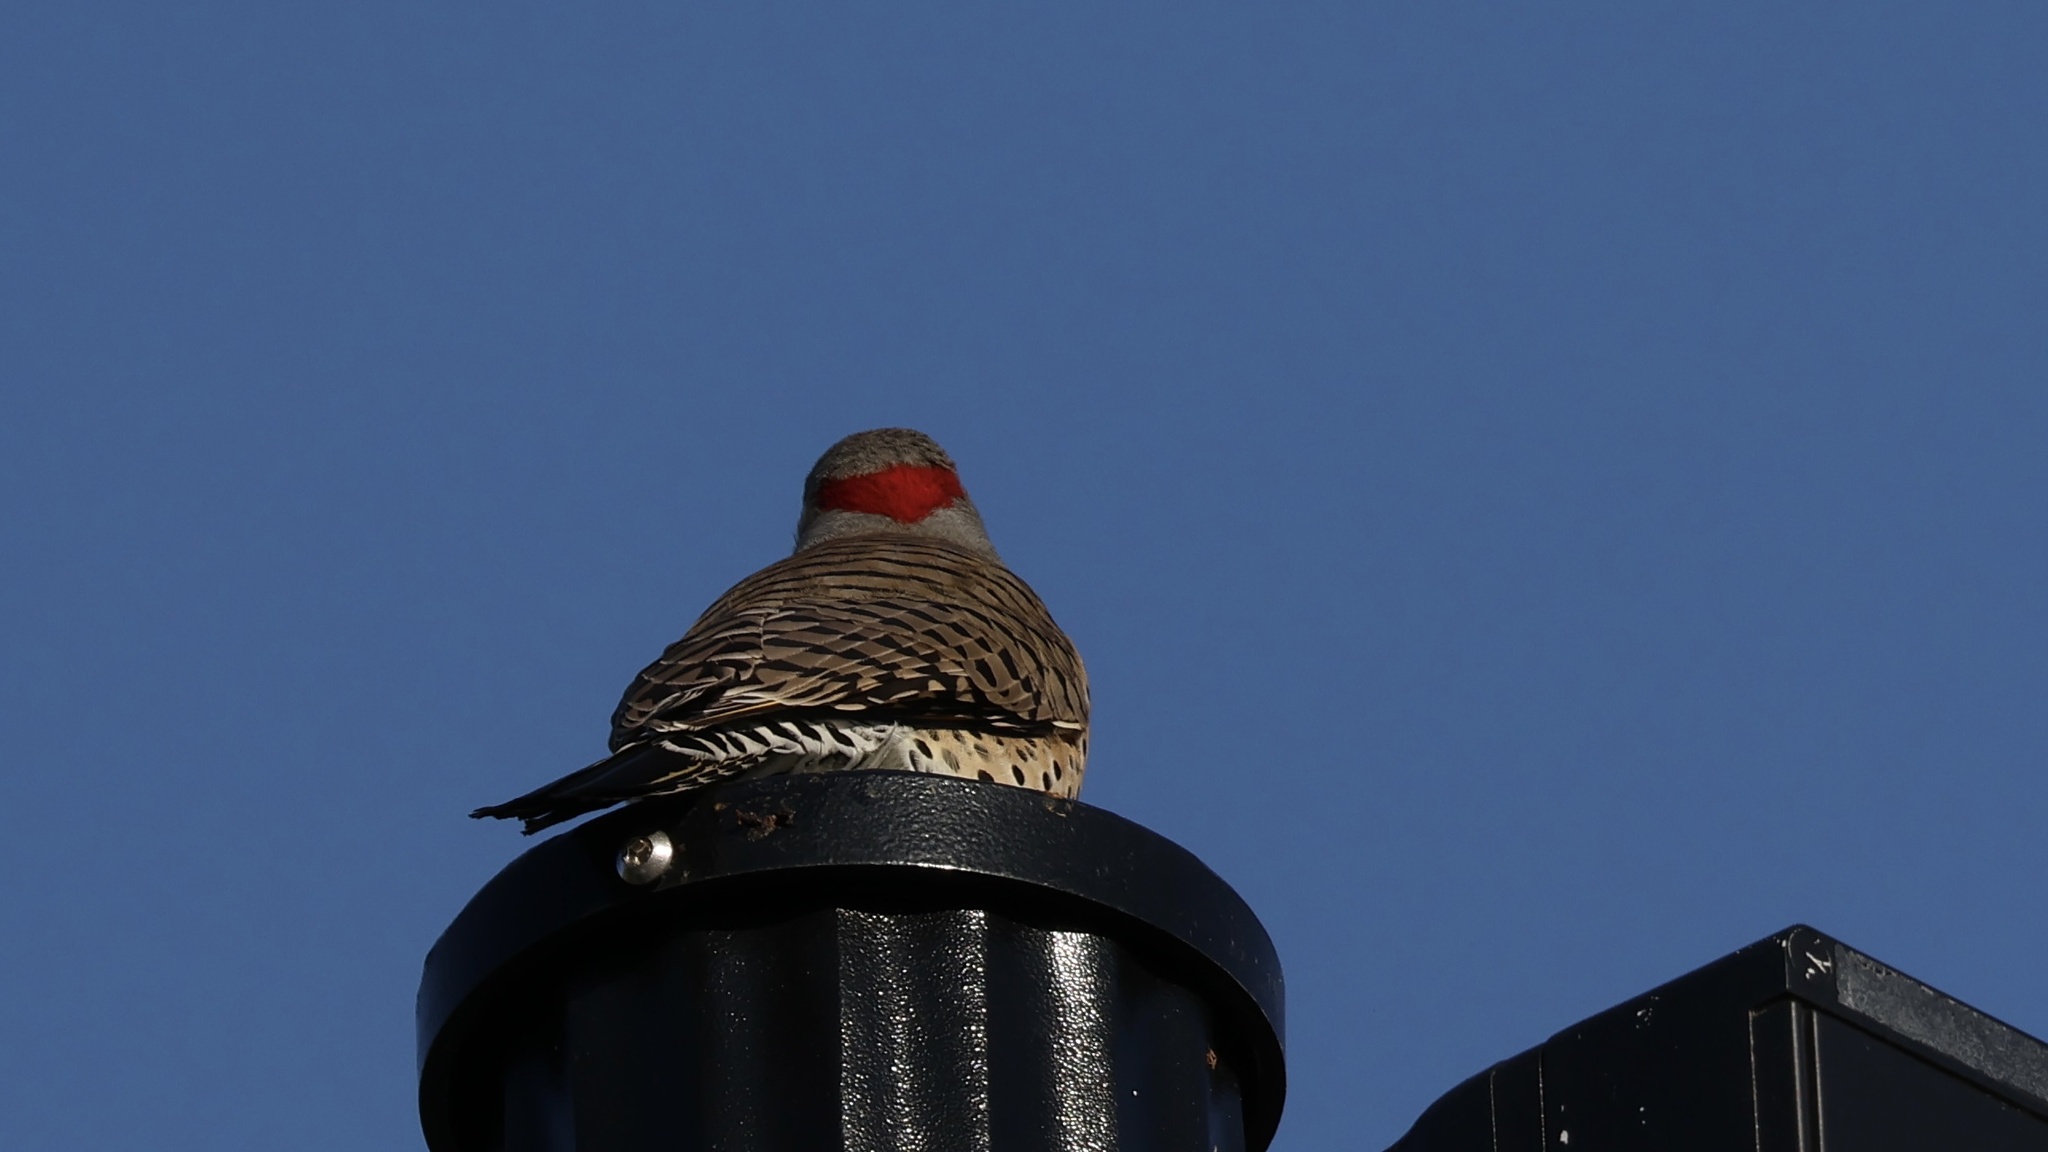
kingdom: Animalia
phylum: Chordata
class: Aves
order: Piciformes
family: Picidae
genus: Colaptes
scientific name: Colaptes auratus
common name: Northern flicker
